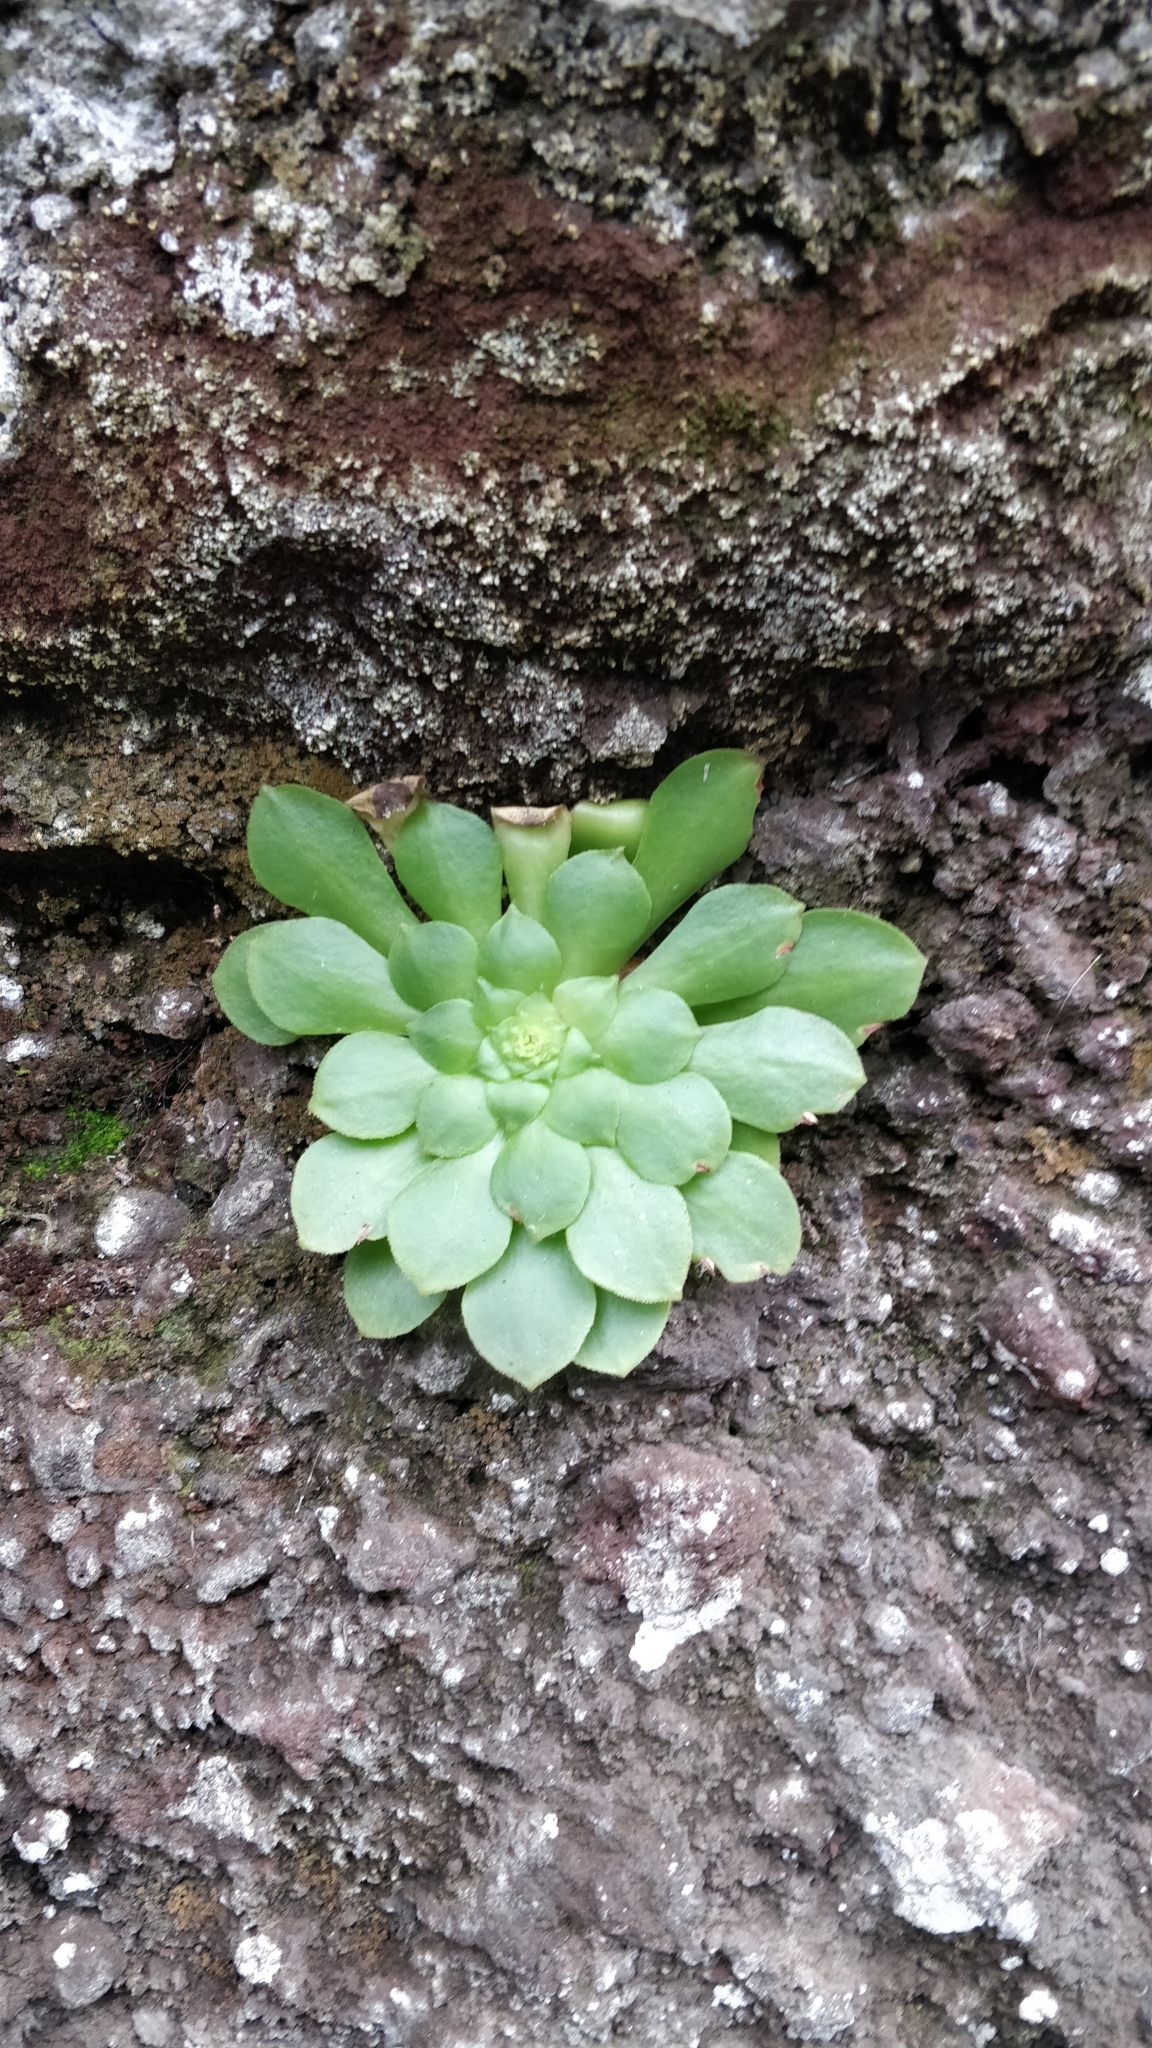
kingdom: Plantae
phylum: Tracheophyta
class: Magnoliopsida
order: Saxifragales
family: Crassulaceae
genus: Aeonium
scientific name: Aeonium glandulosum
